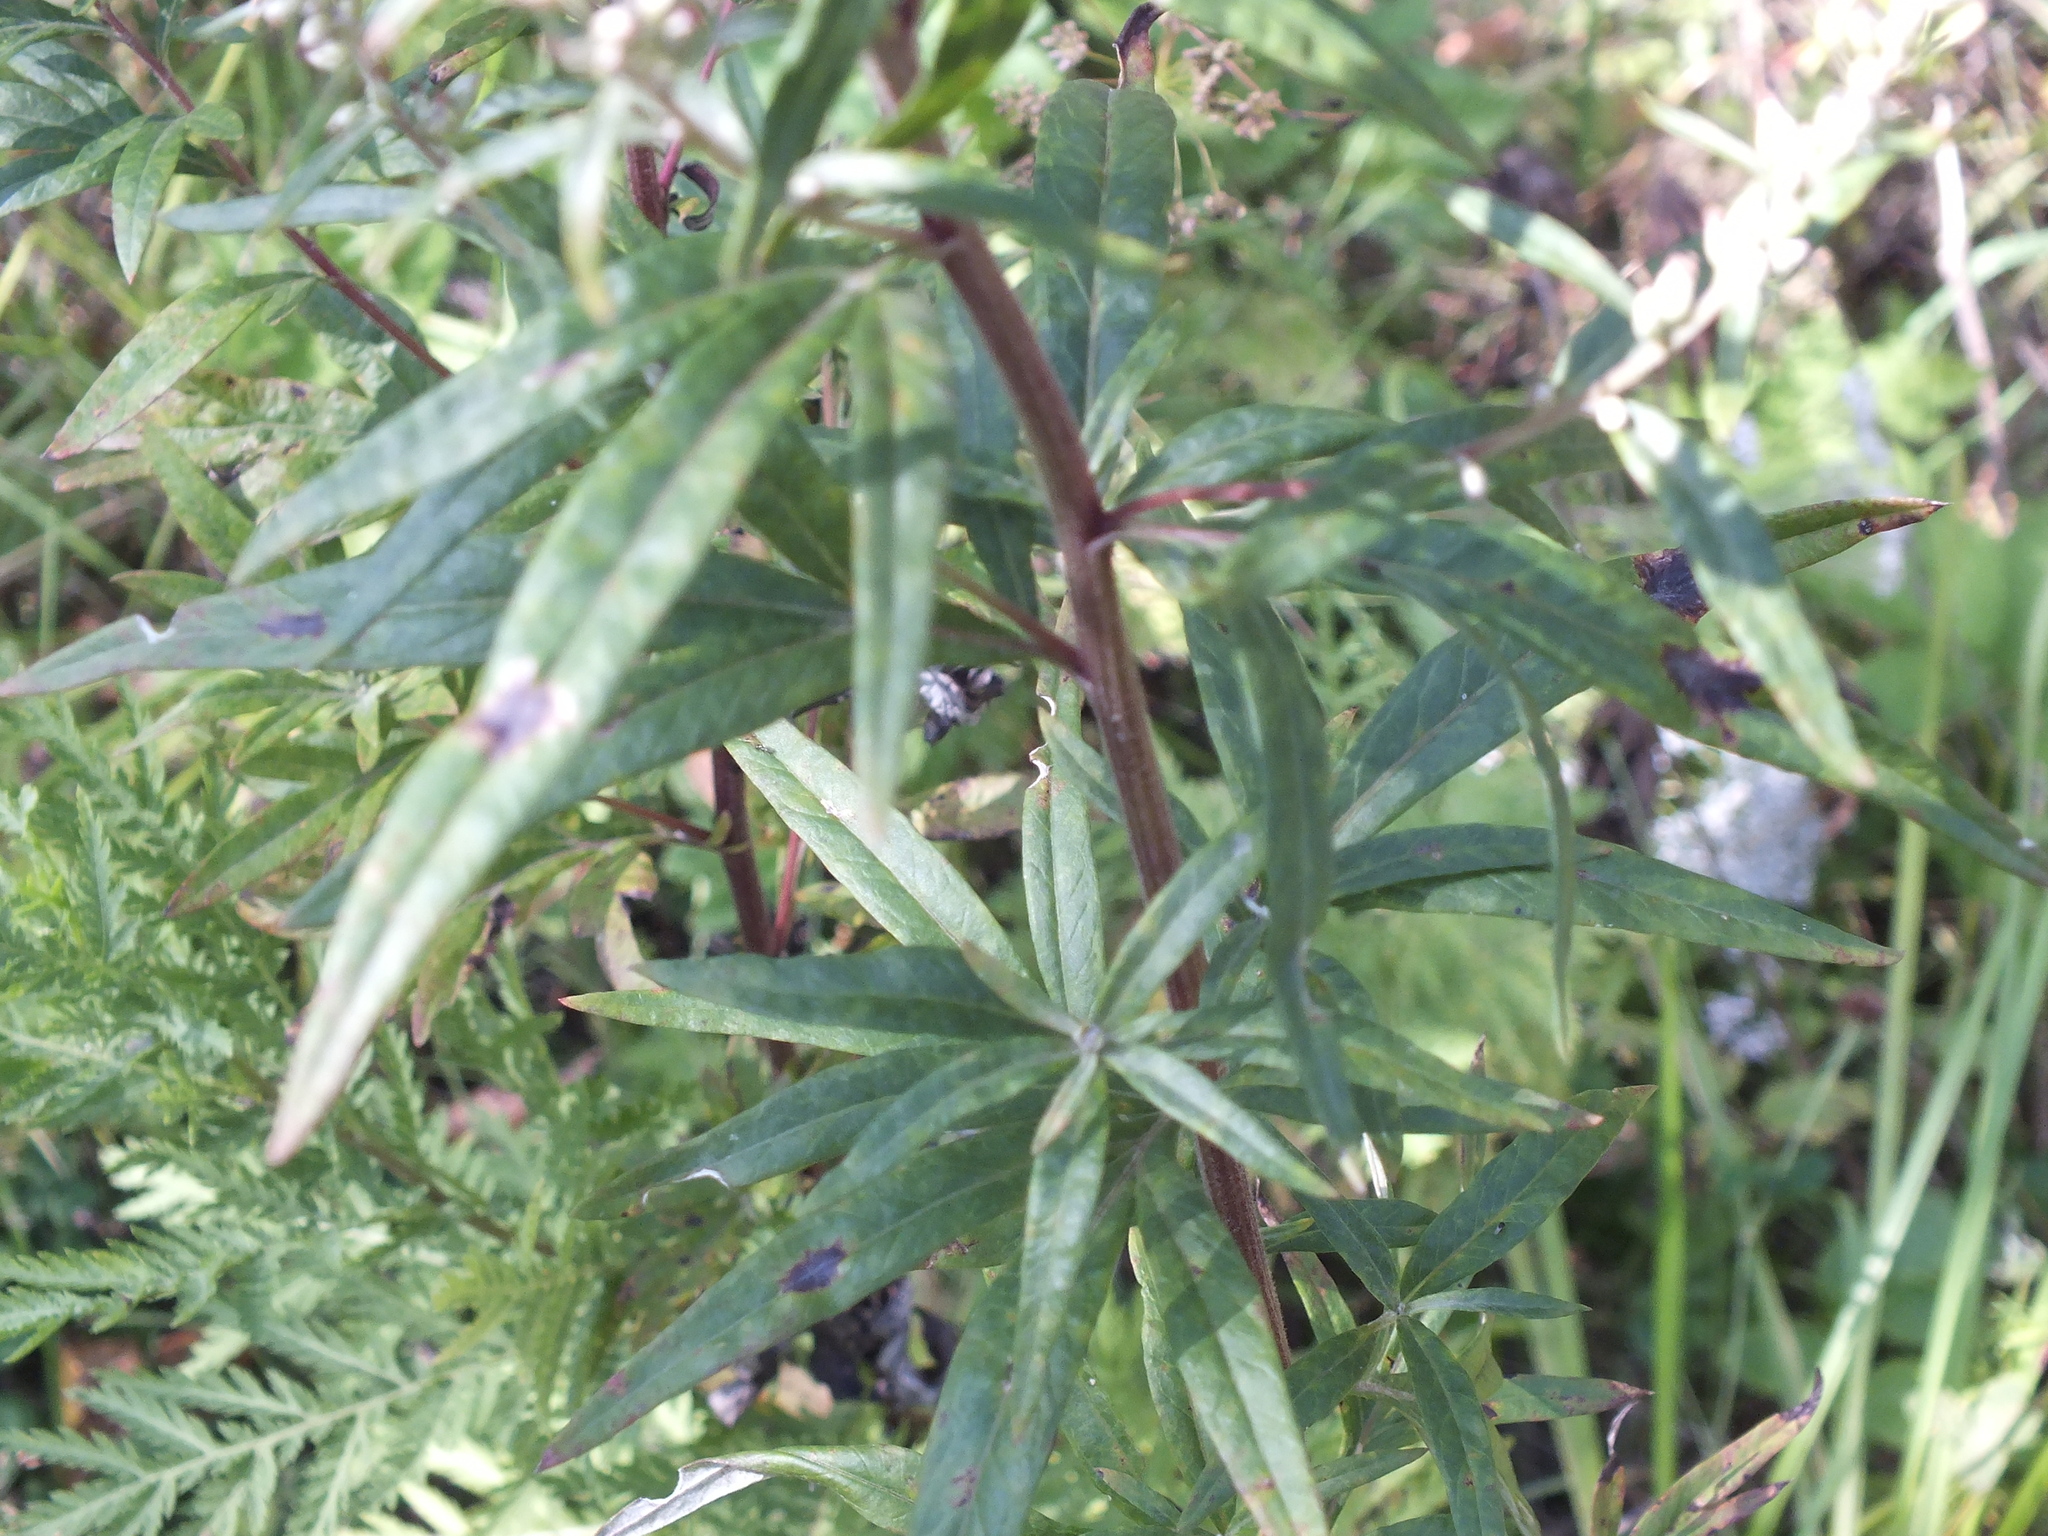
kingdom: Plantae
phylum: Tracheophyta
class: Magnoliopsida
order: Asterales
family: Asteraceae
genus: Artemisia
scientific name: Artemisia vulgaris
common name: Mugwort
